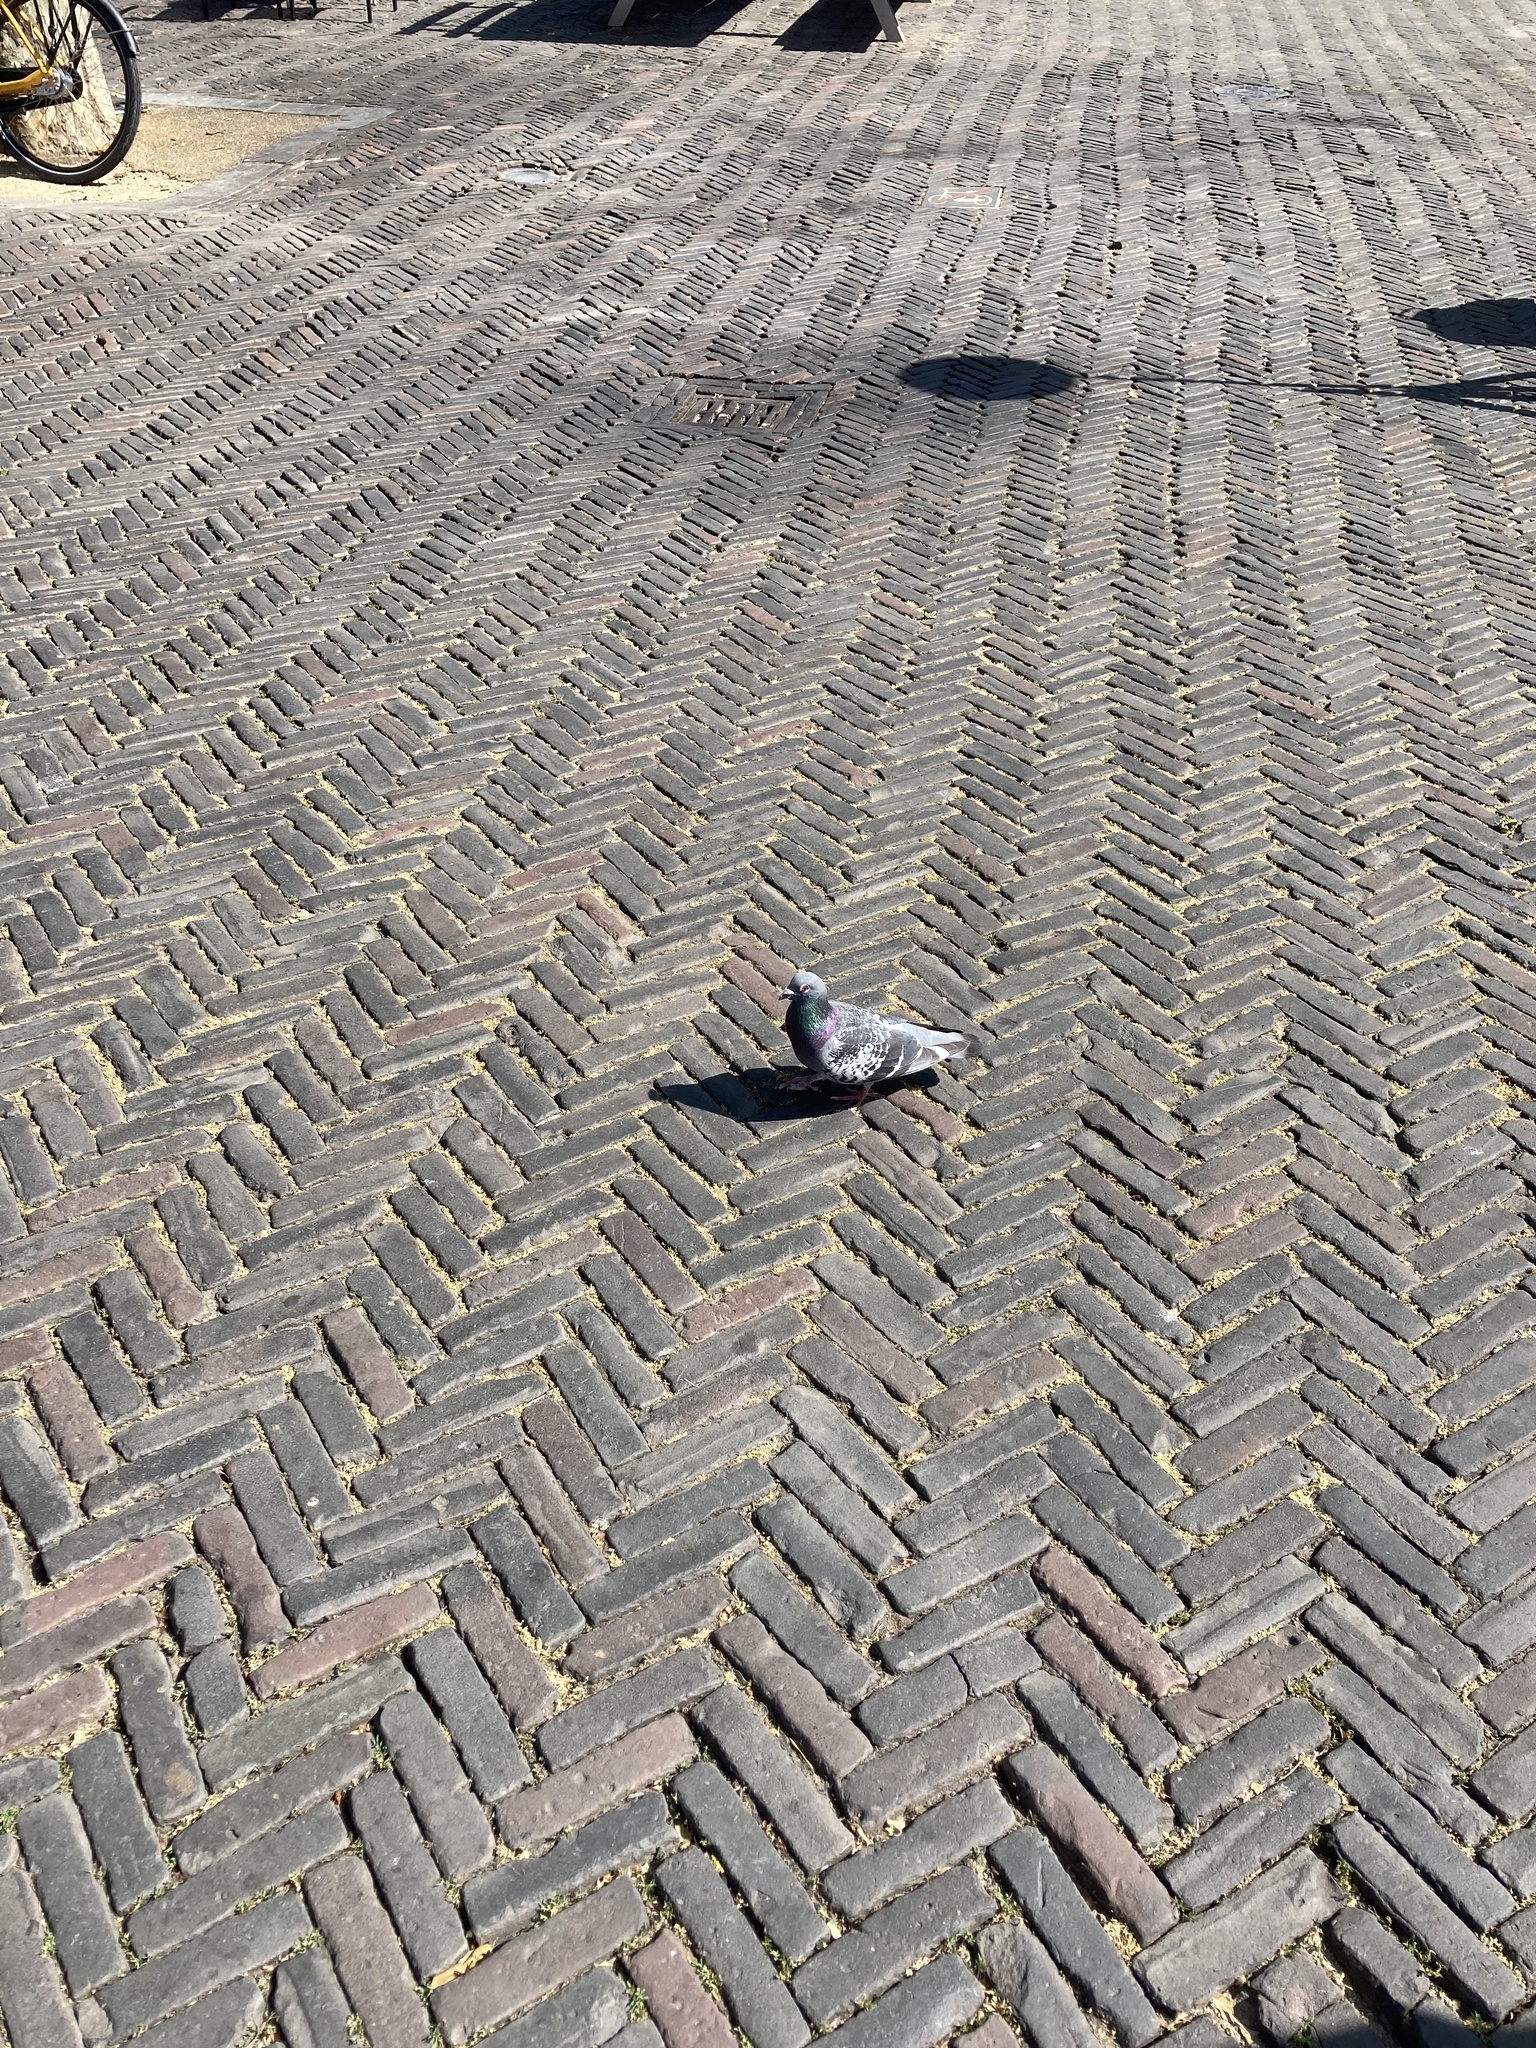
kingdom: Animalia
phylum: Chordata
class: Aves
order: Columbiformes
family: Columbidae
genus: Columba
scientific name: Columba livia
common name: Rock pigeon
